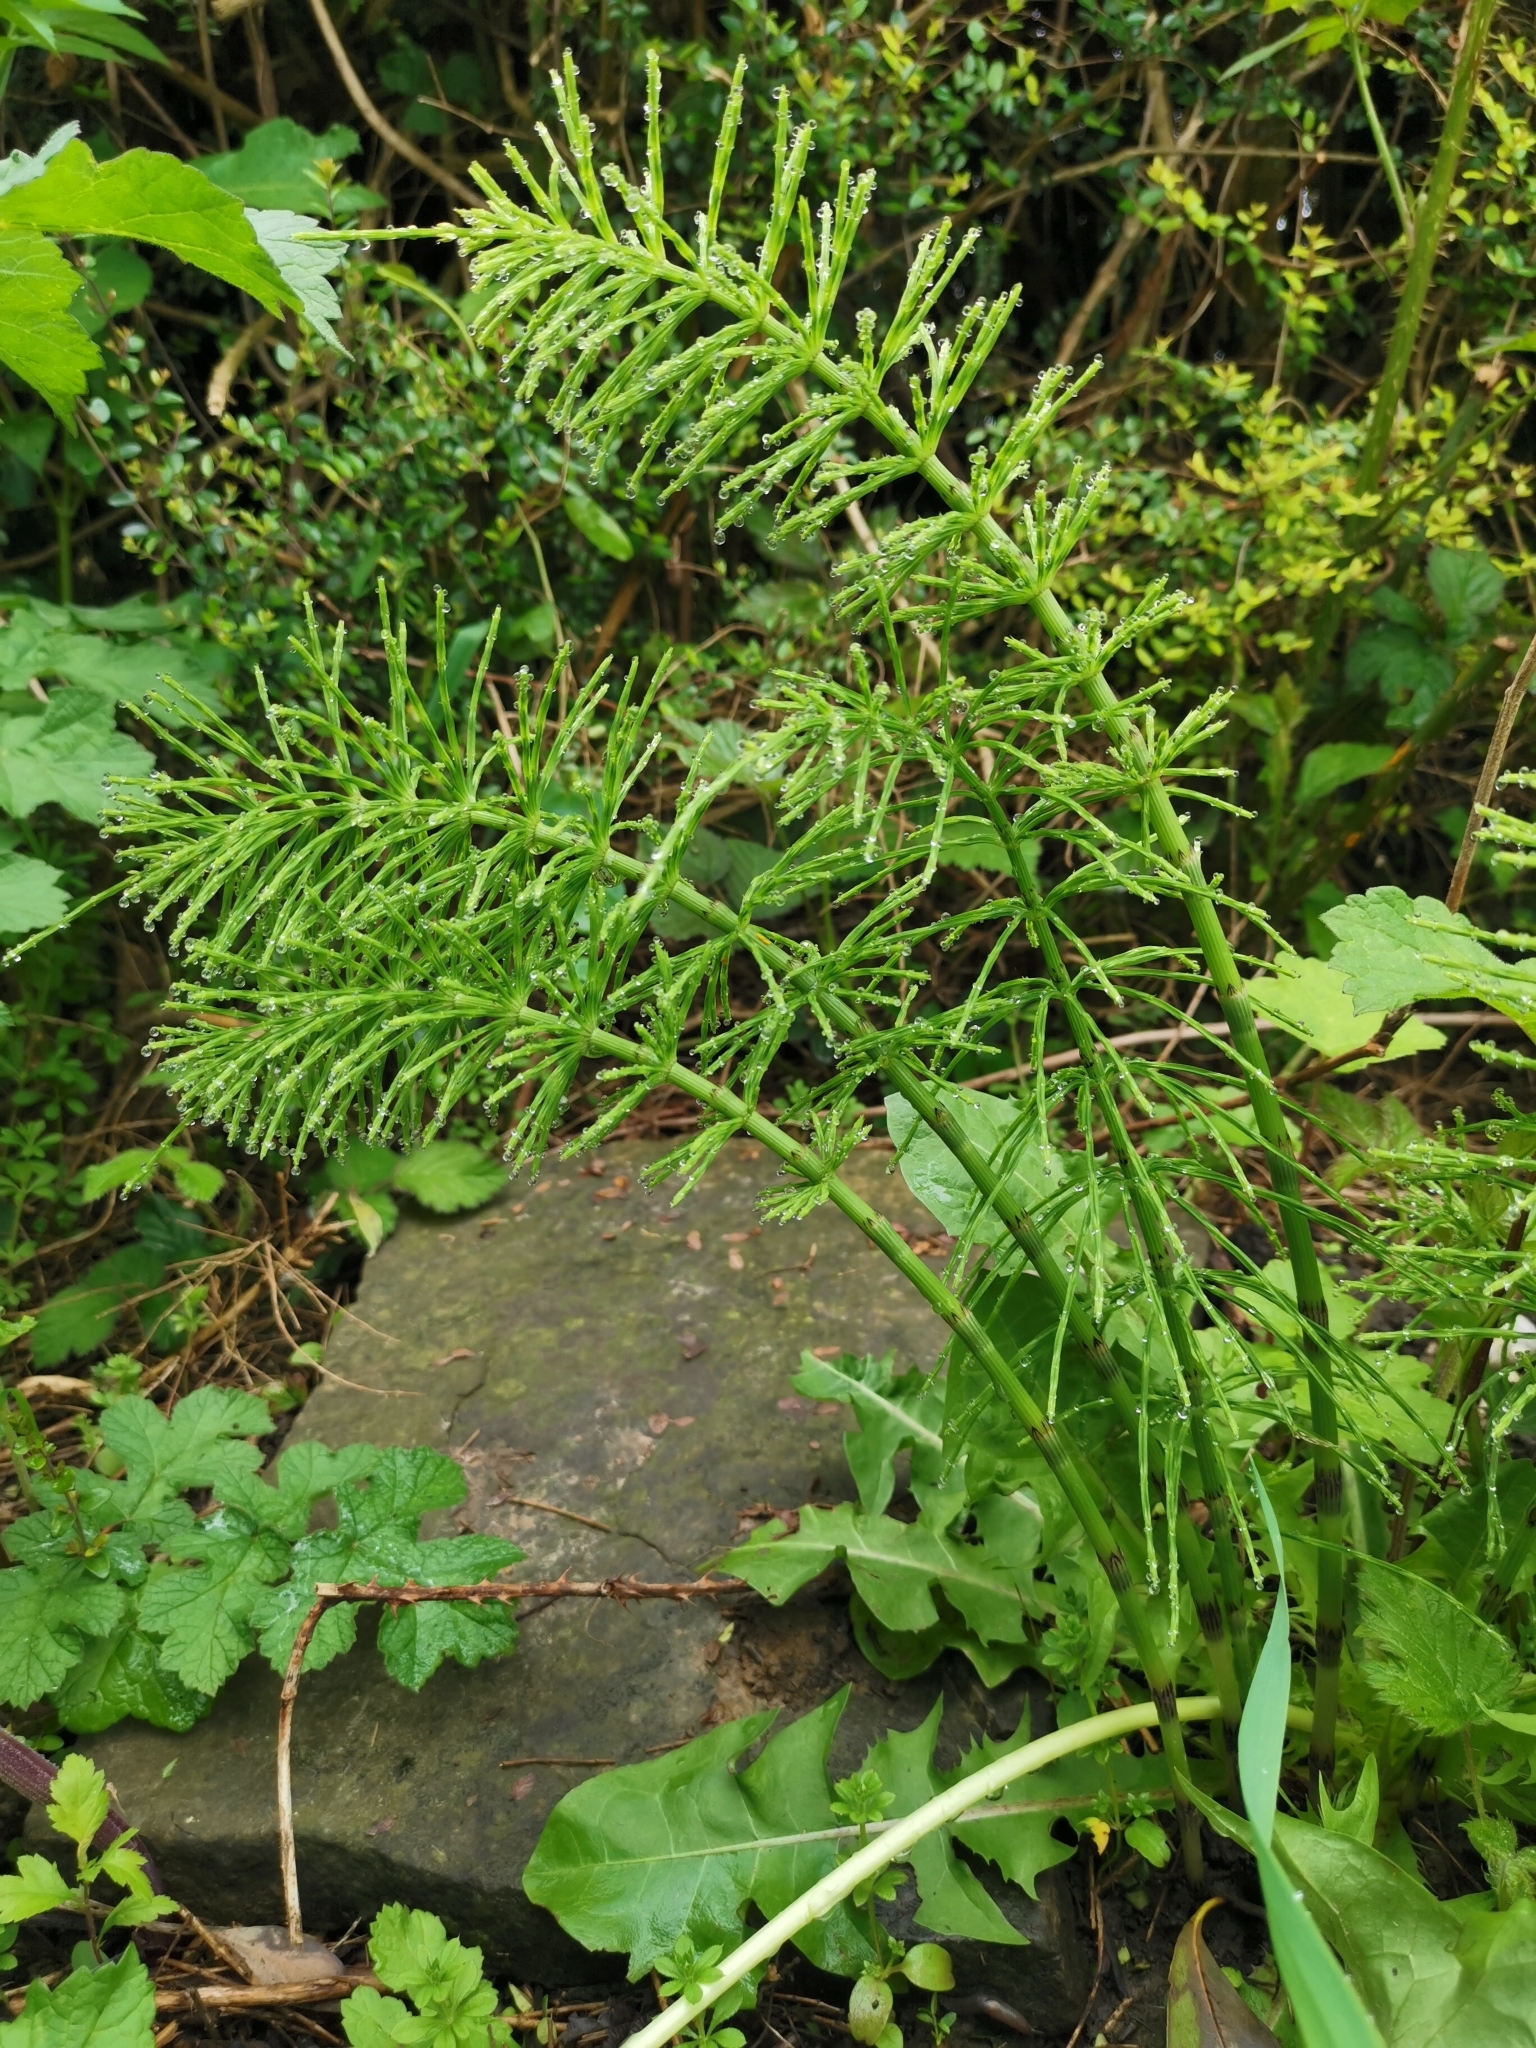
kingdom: Plantae
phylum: Tracheophyta
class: Polypodiopsida
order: Equisetales
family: Equisetaceae
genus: Equisetum
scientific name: Equisetum arvense
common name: Field horsetail
